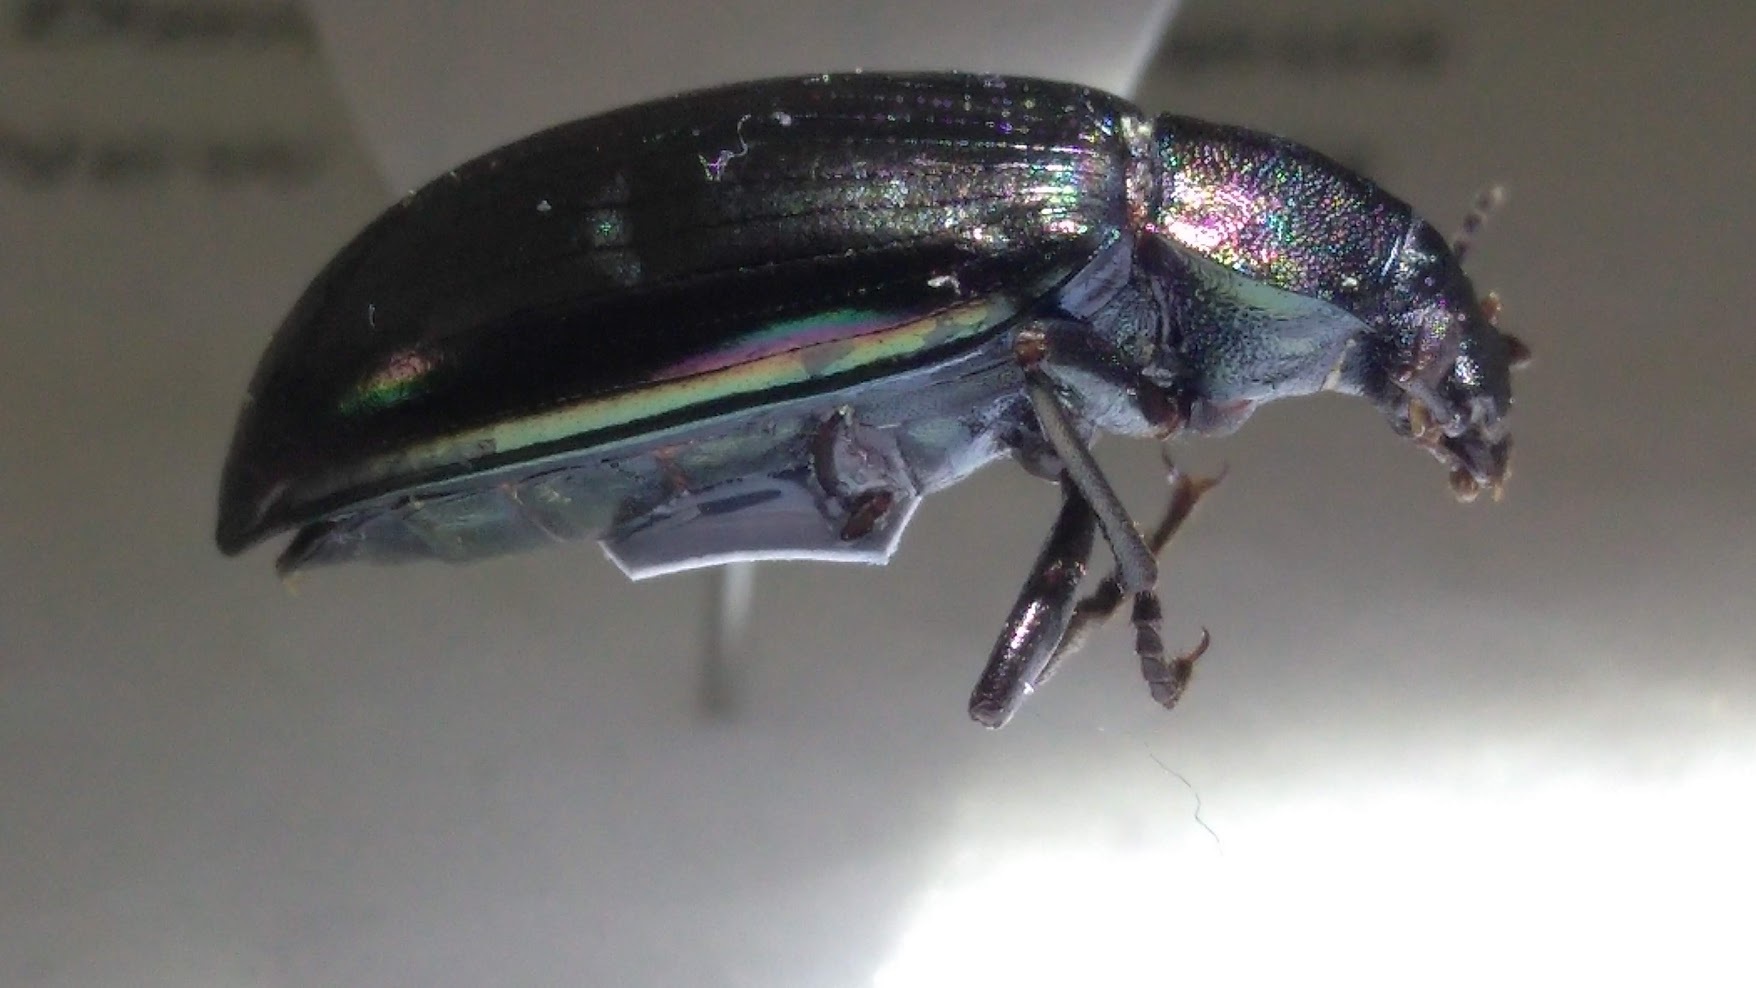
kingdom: Animalia
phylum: Arthropoda
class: Insecta
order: Coleoptera
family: Tenebrionidae
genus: Tarpela
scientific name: Tarpela micans
